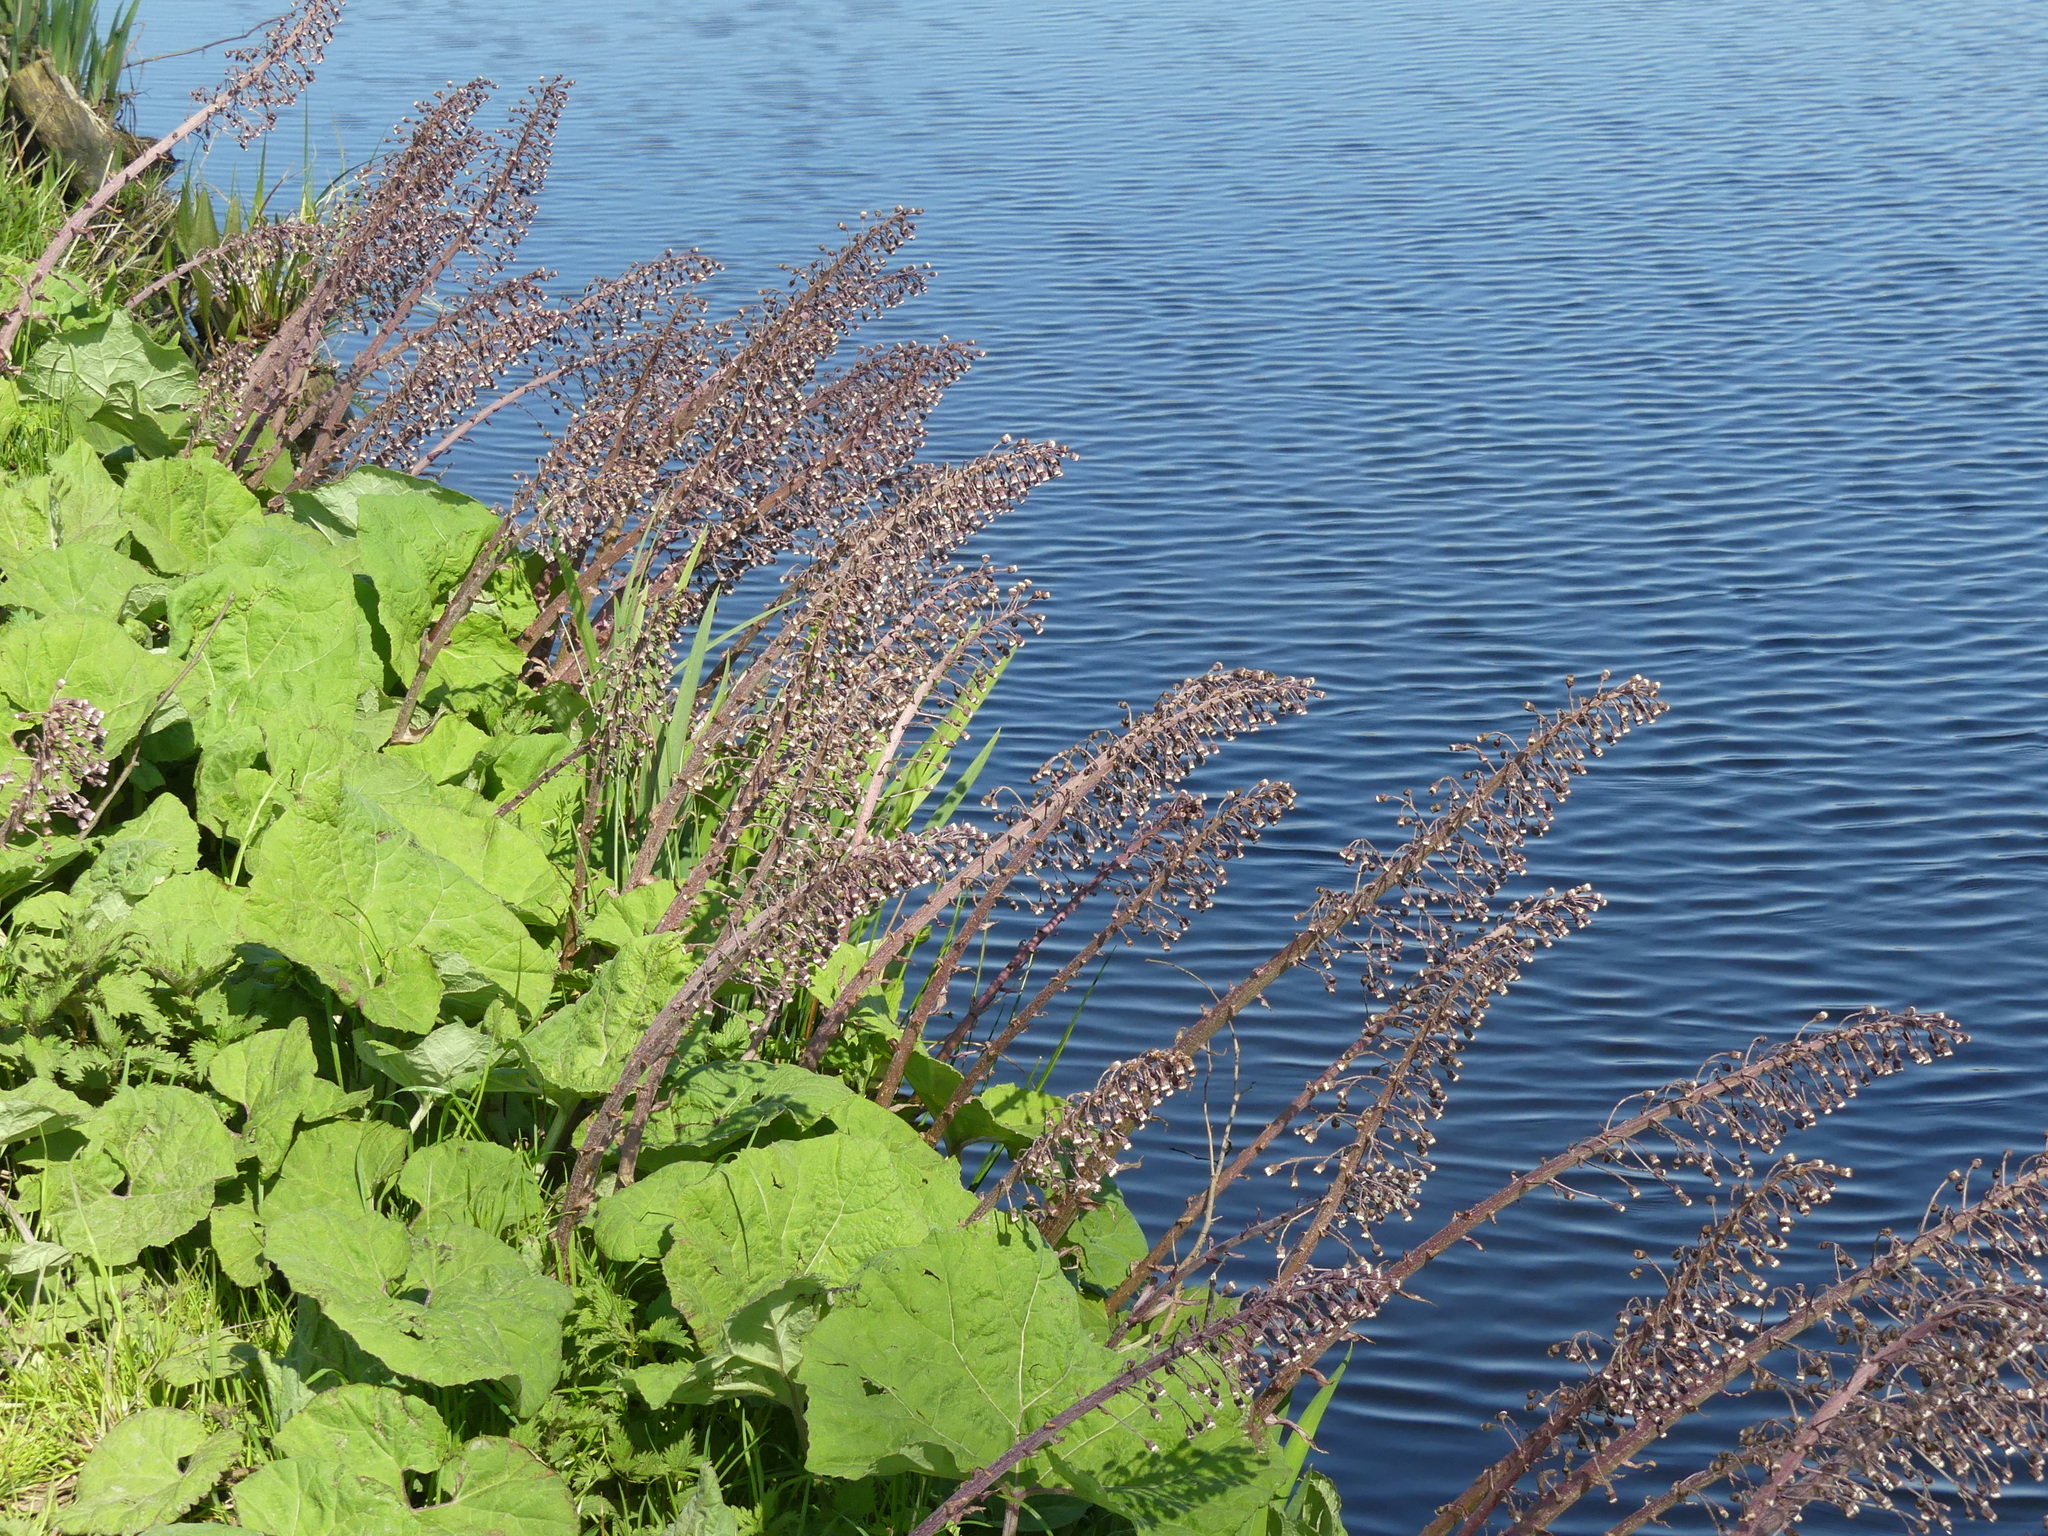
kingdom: Plantae
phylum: Tracheophyta
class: Magnoliopsida
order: Asterales
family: Asteraceae
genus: Petasites
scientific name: Petasites hybridus
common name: Butterbur
